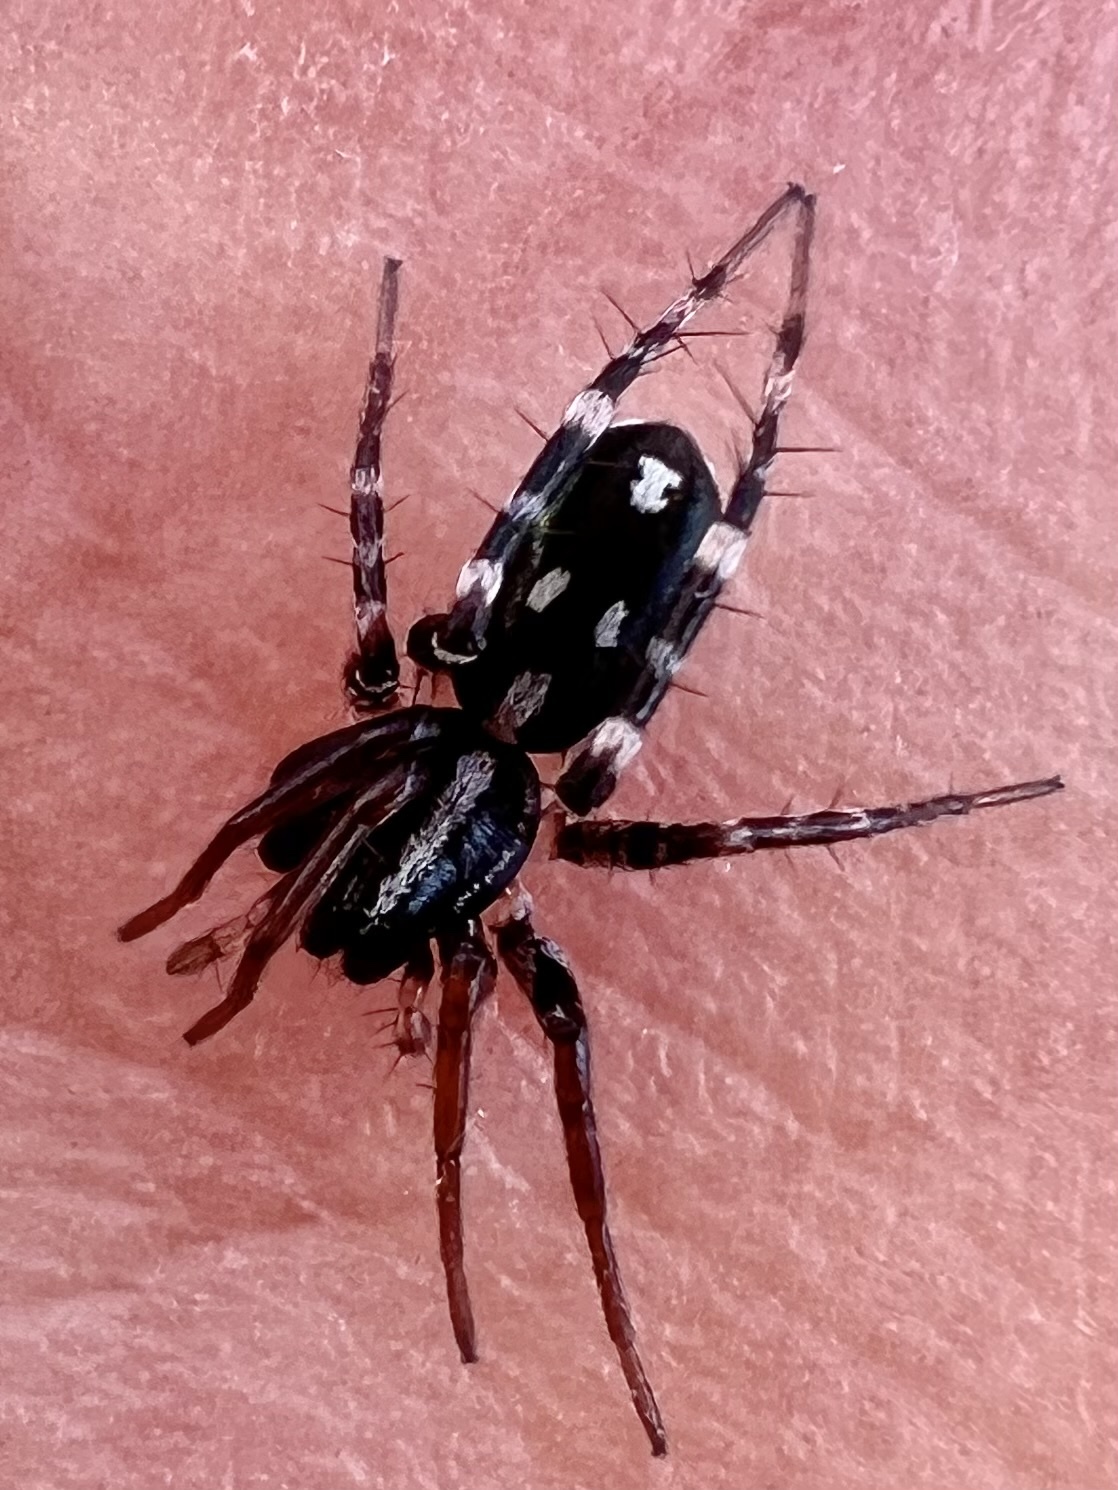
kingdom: Animalia
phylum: Arthropoda
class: Arachnida
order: Araneae
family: Corinnidae
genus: Nyssus
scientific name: Nyssus coloripes
